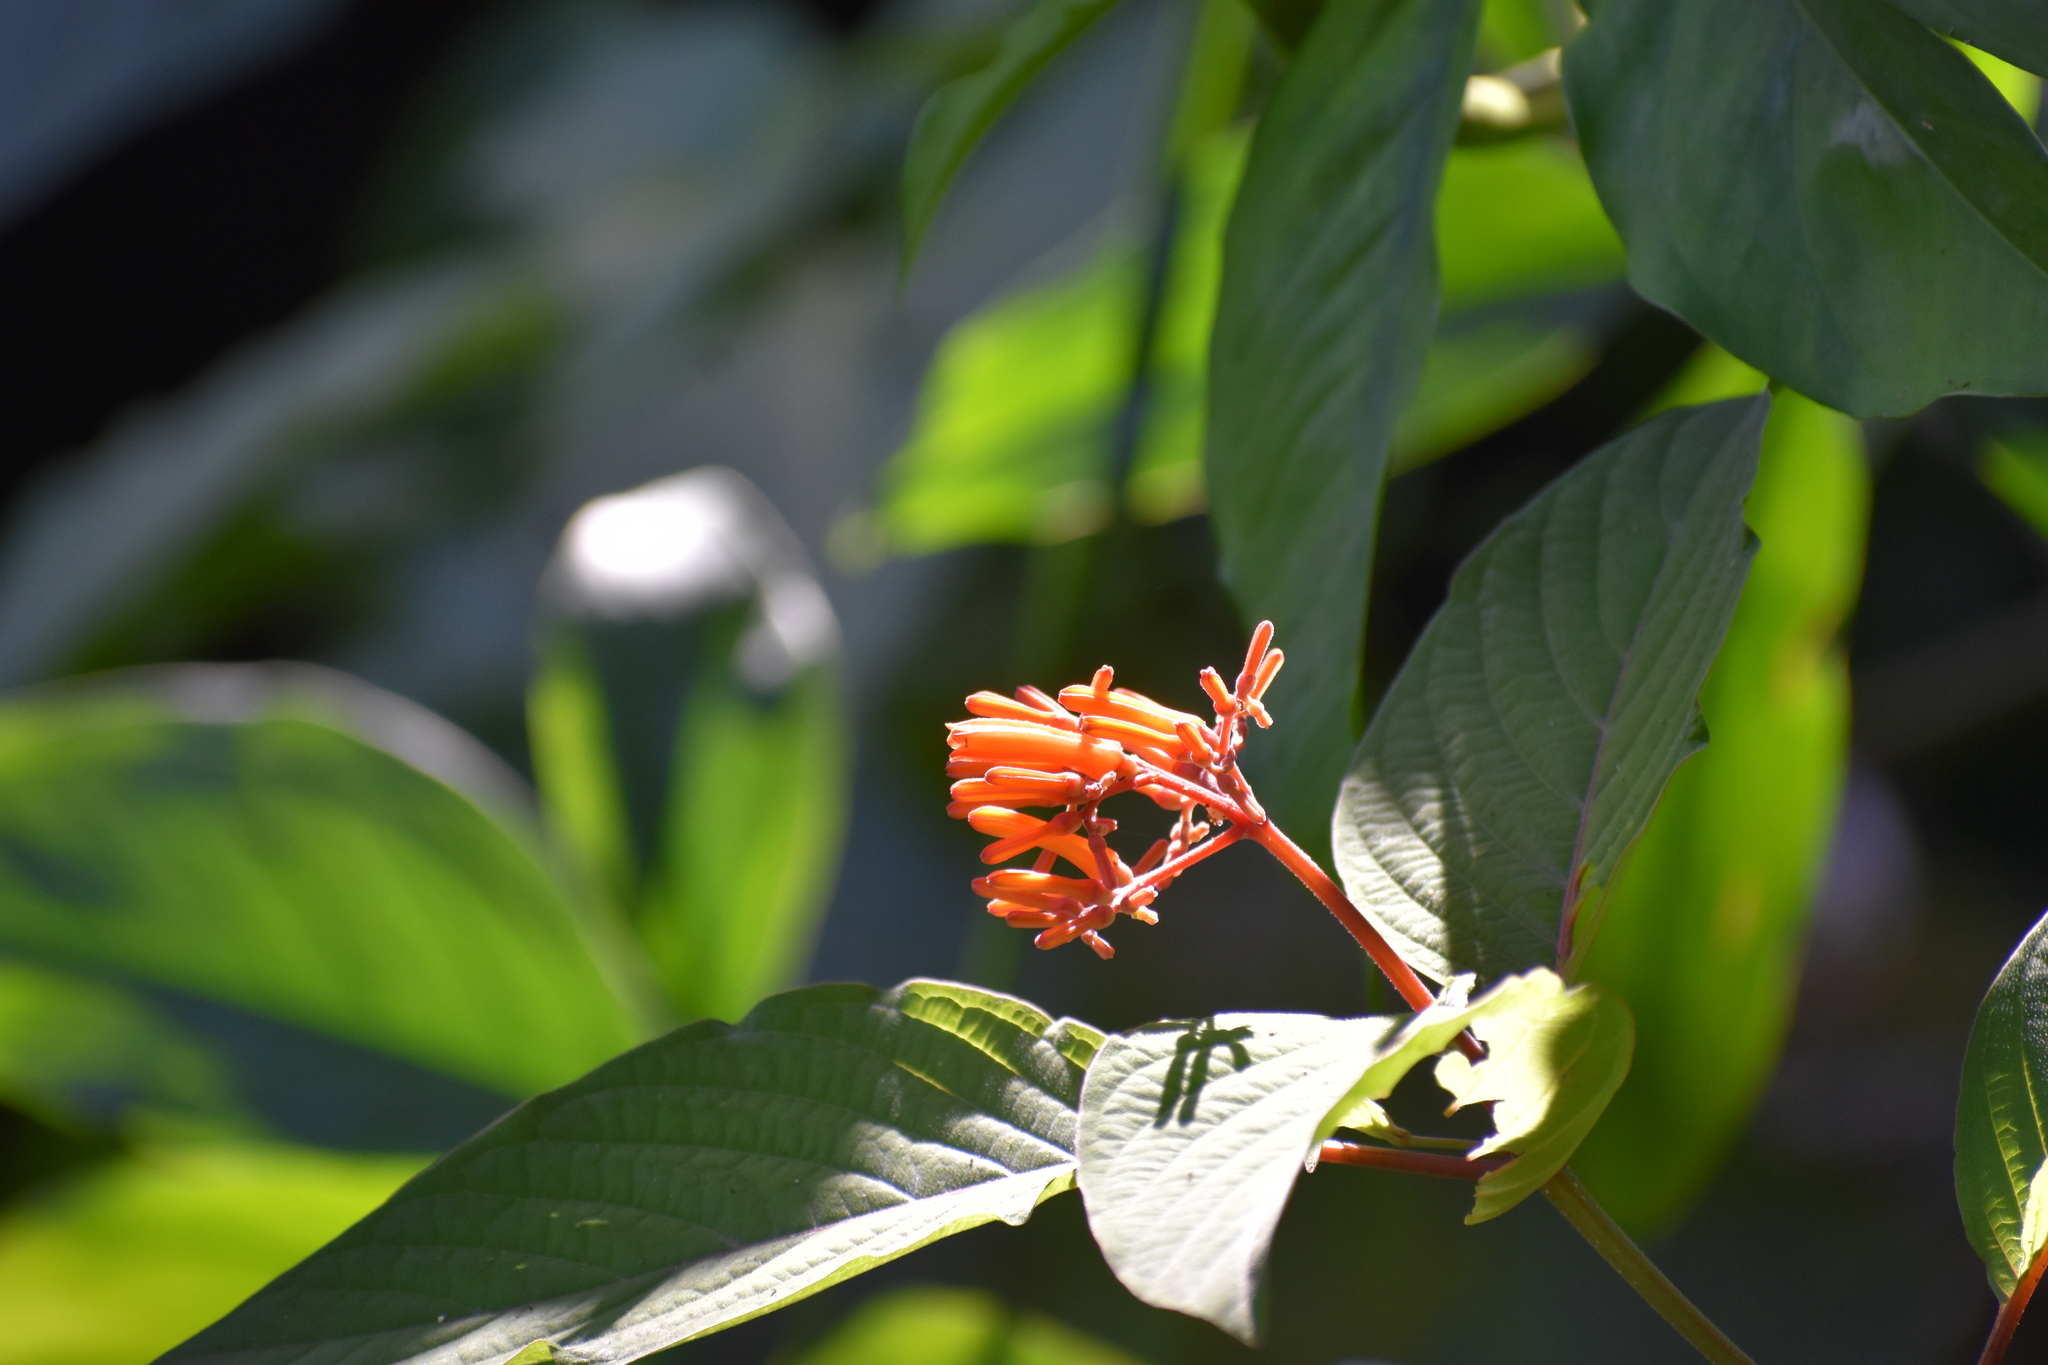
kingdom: Plantae
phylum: Tracheophyta
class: Magnoliopsida
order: Gentianales
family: Rubiaceae
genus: Hamelia
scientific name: Hamelia patens
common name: Redhead
